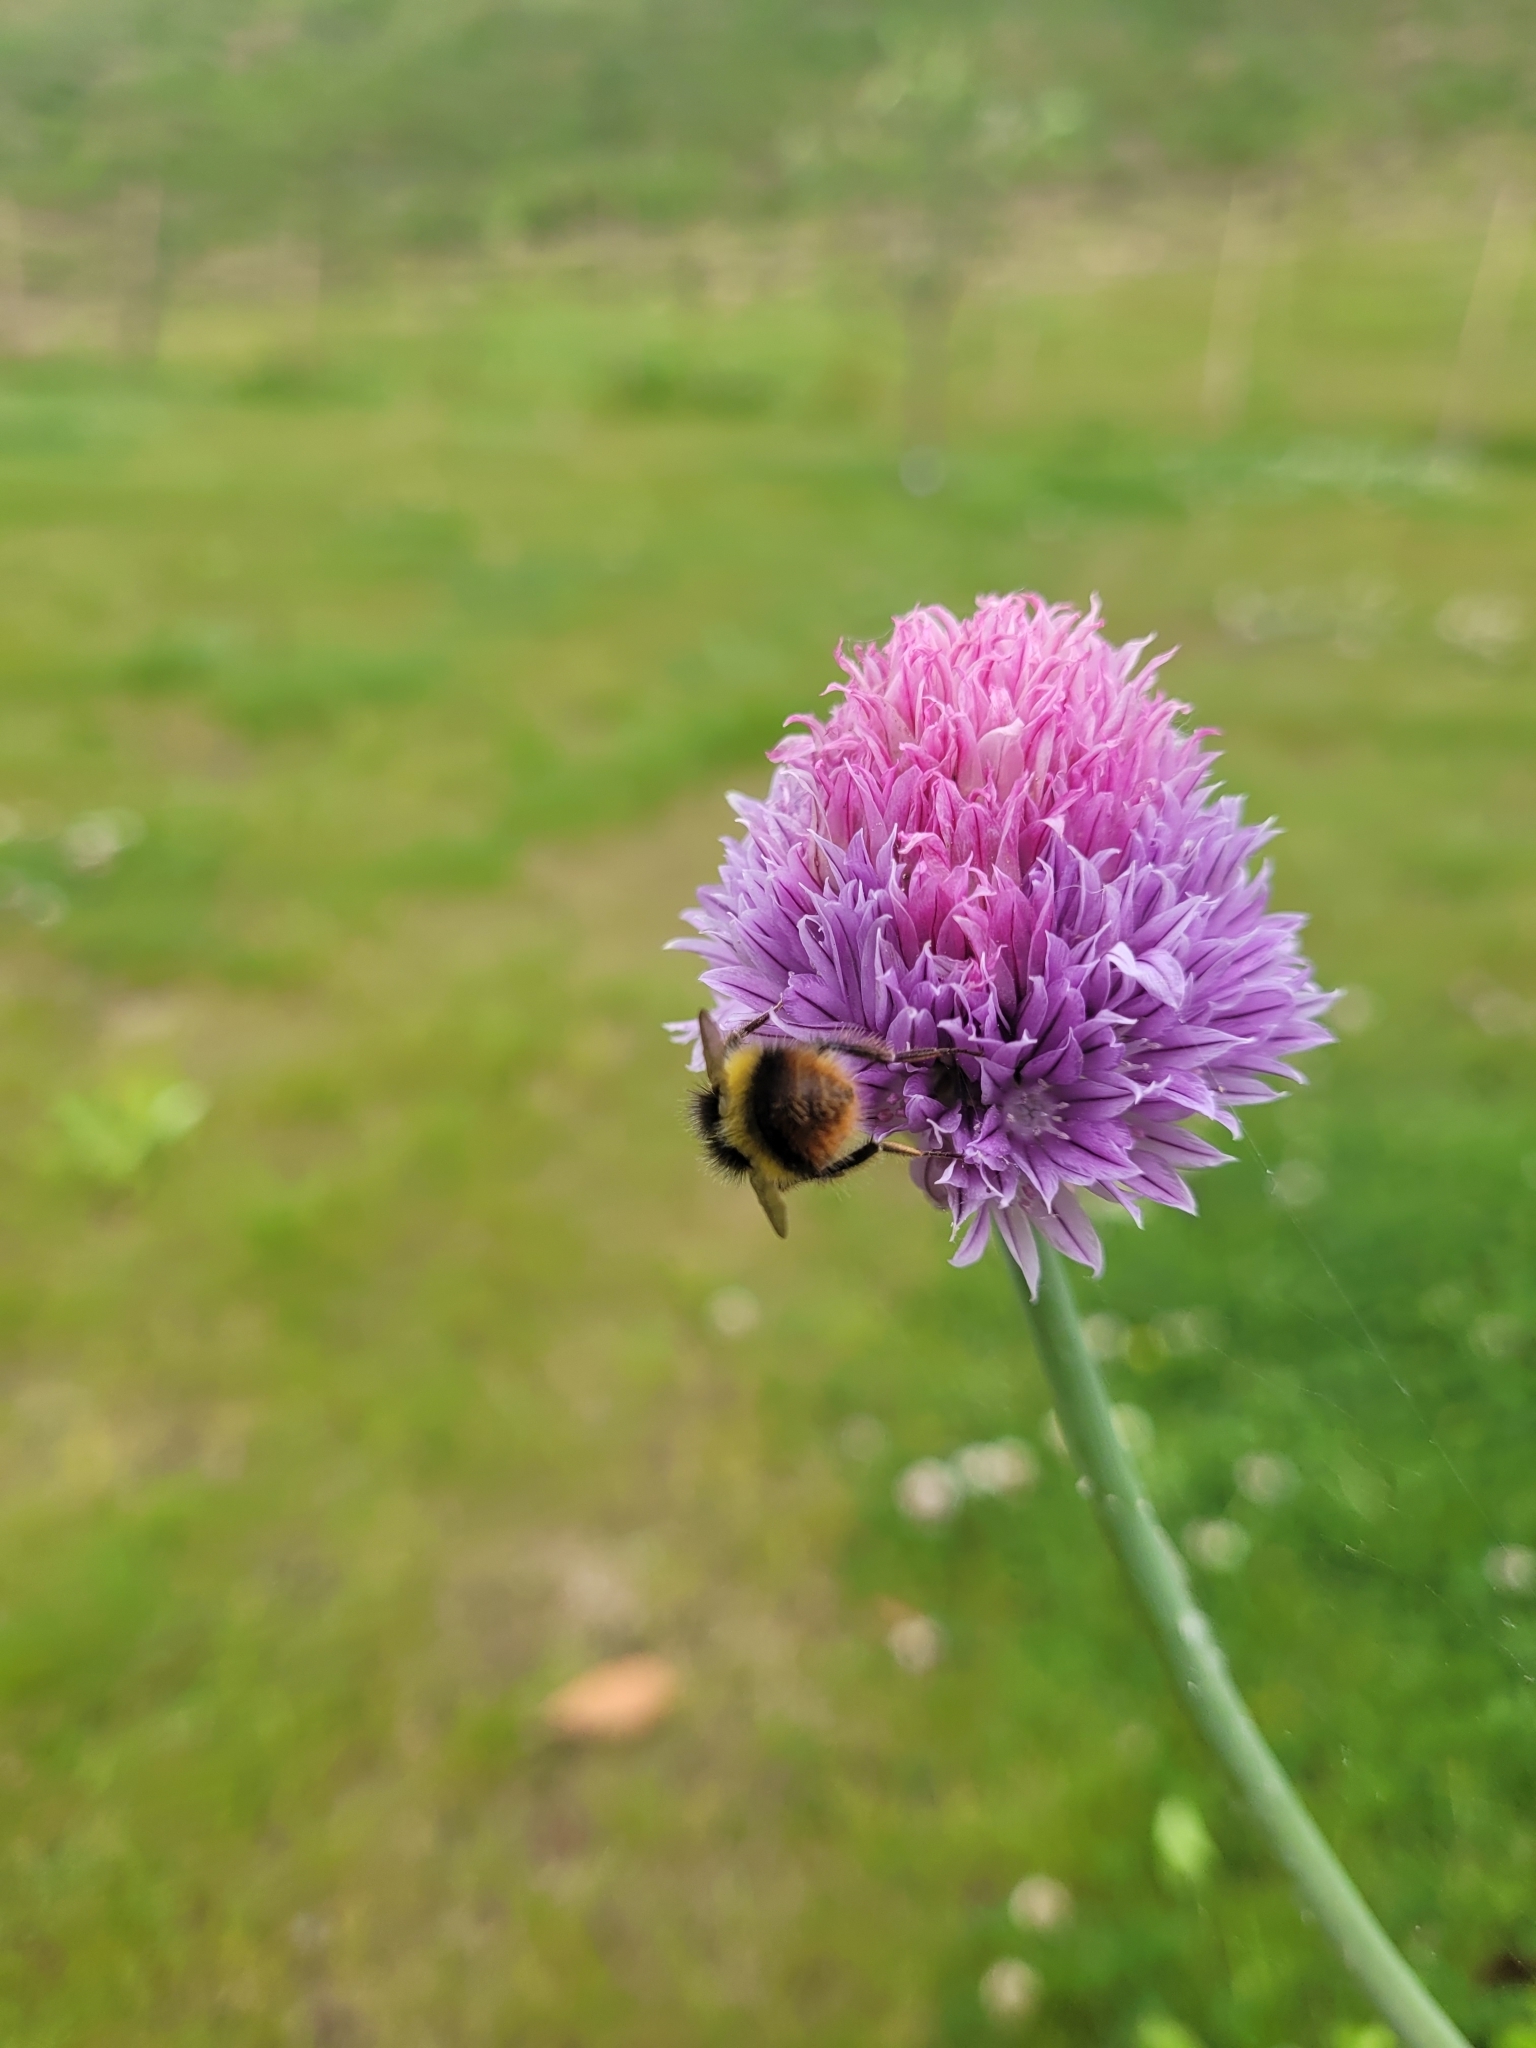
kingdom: Animalia
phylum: Arthropoda
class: Insecta
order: Hymenoptera
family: Apidae
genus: Bombus
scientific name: Bombus pratorum
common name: Early humble-bee
